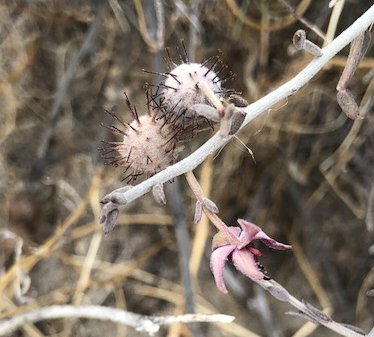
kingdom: Plantae
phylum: Tracheophyta
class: Magnoliopsida
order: Zygophyllales
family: Krameriaceae
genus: Krameria
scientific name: Krameria bicolor
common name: White ratany
